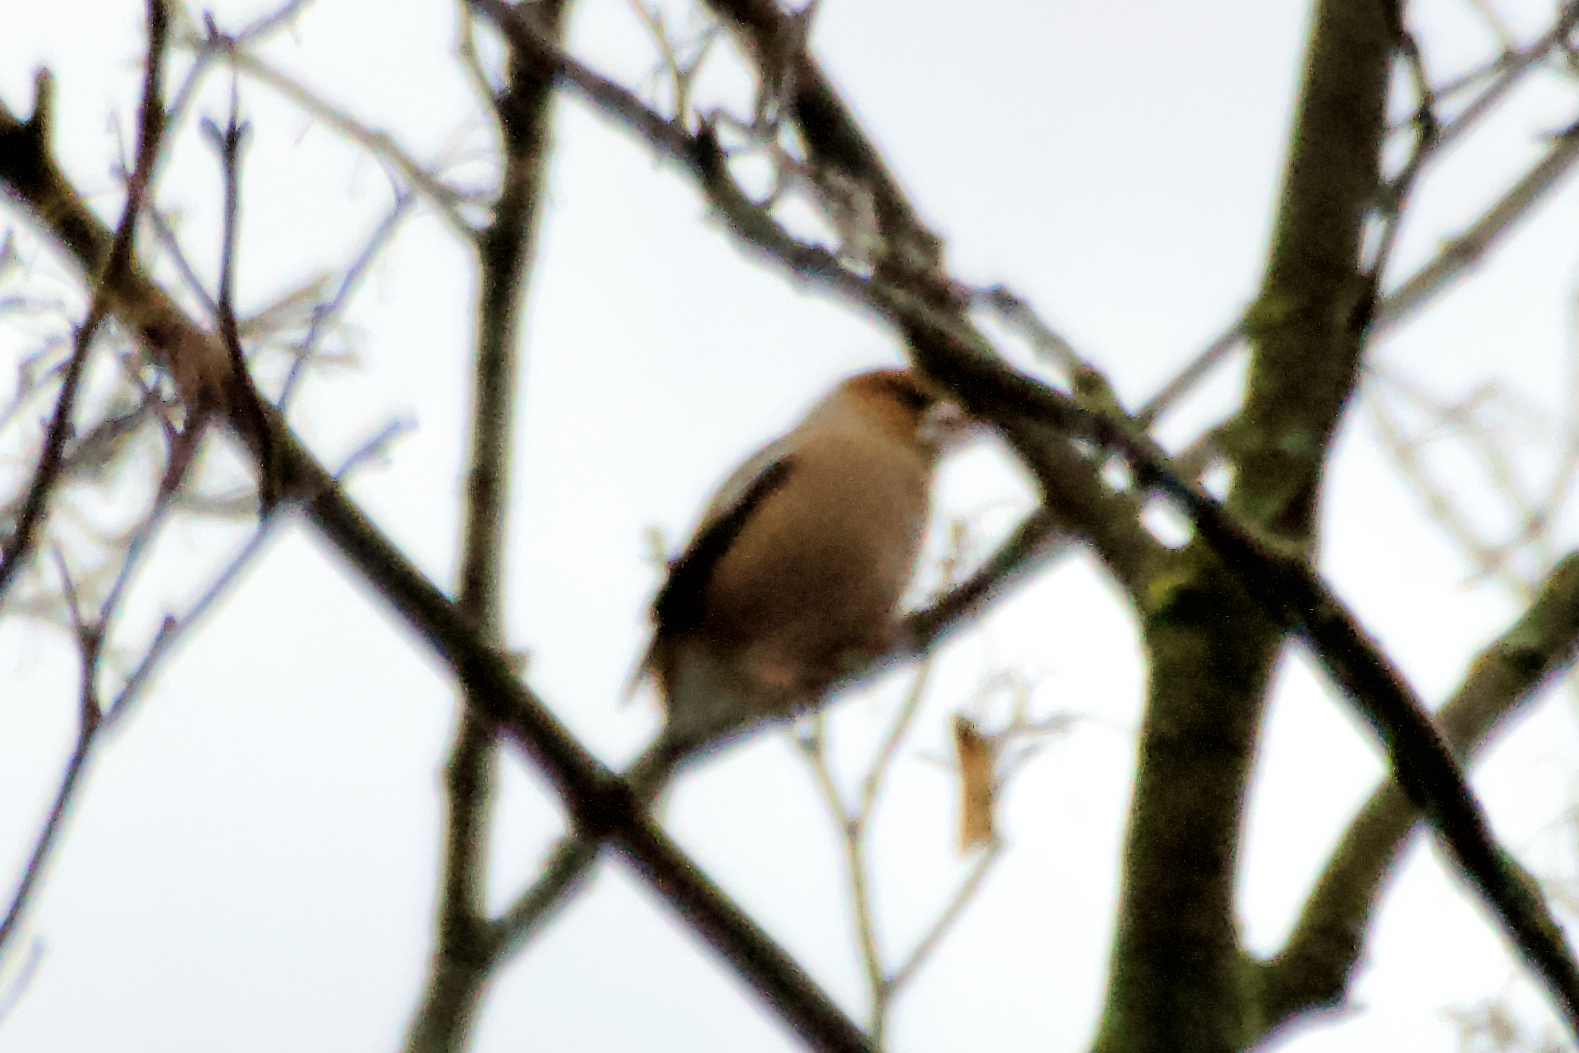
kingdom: Animalia
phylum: Chordata
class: Aves
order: Passeriformes
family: Fringillidae
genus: Coccothraustes
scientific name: Coccothraustes coccothraustes
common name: Hawfinch
